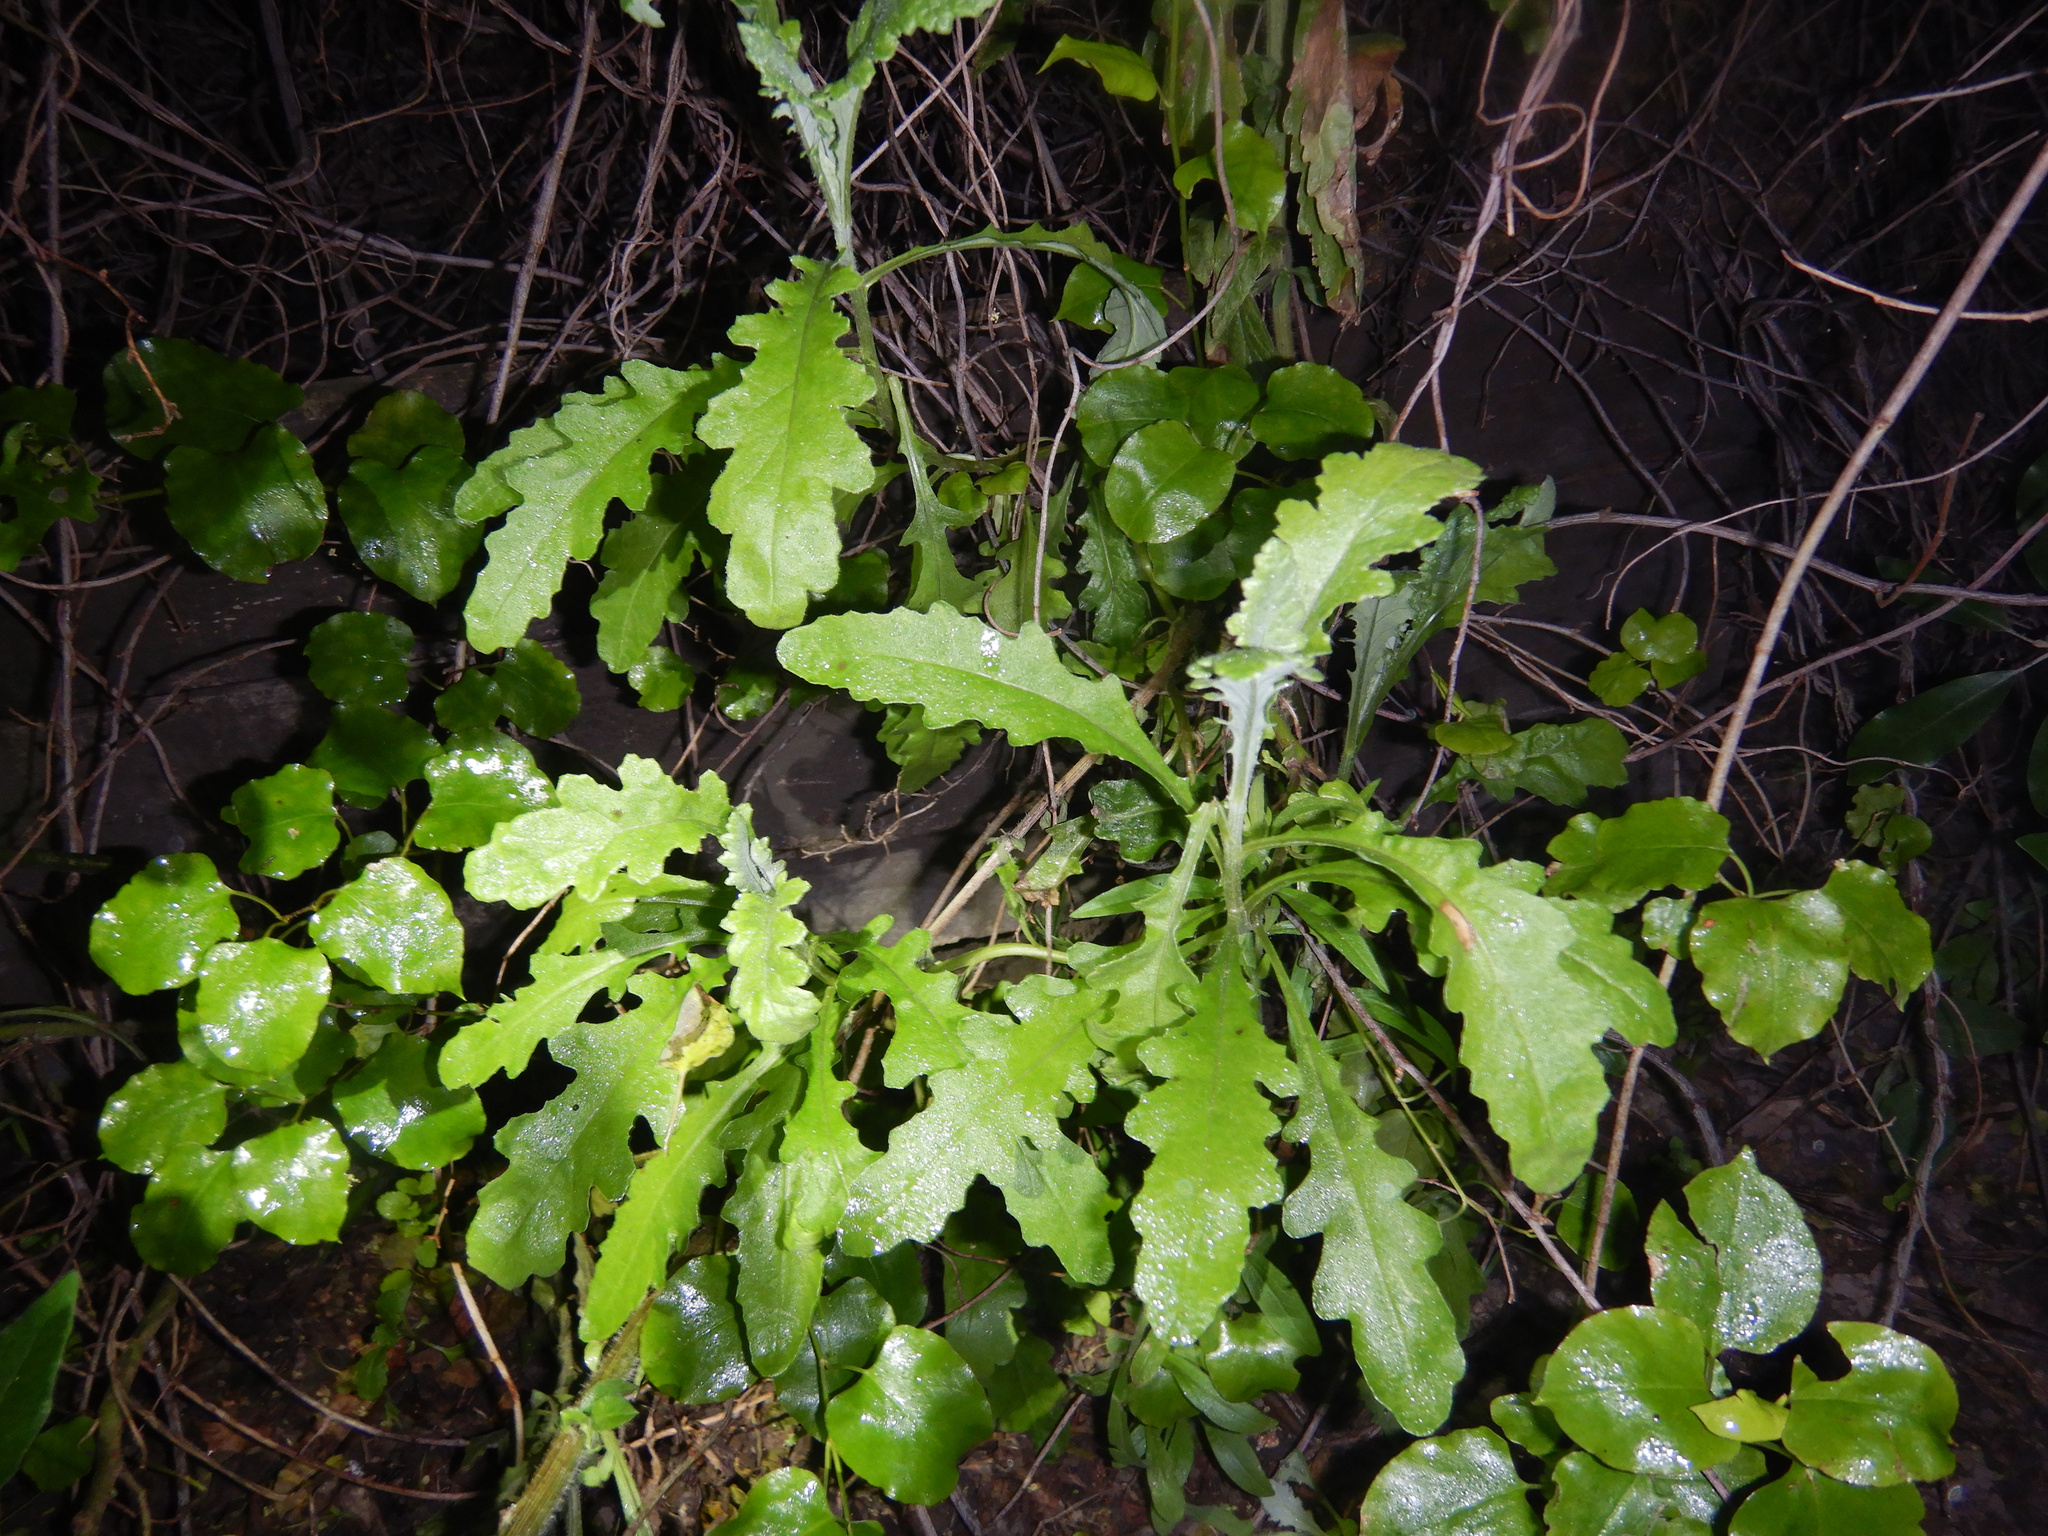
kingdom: Plantae
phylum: Tracheophyta
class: Magnoliopsida
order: Asterales
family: Asteraceae
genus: Senecio
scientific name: Senecio glomeratus
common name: Cutleaf burnweed
